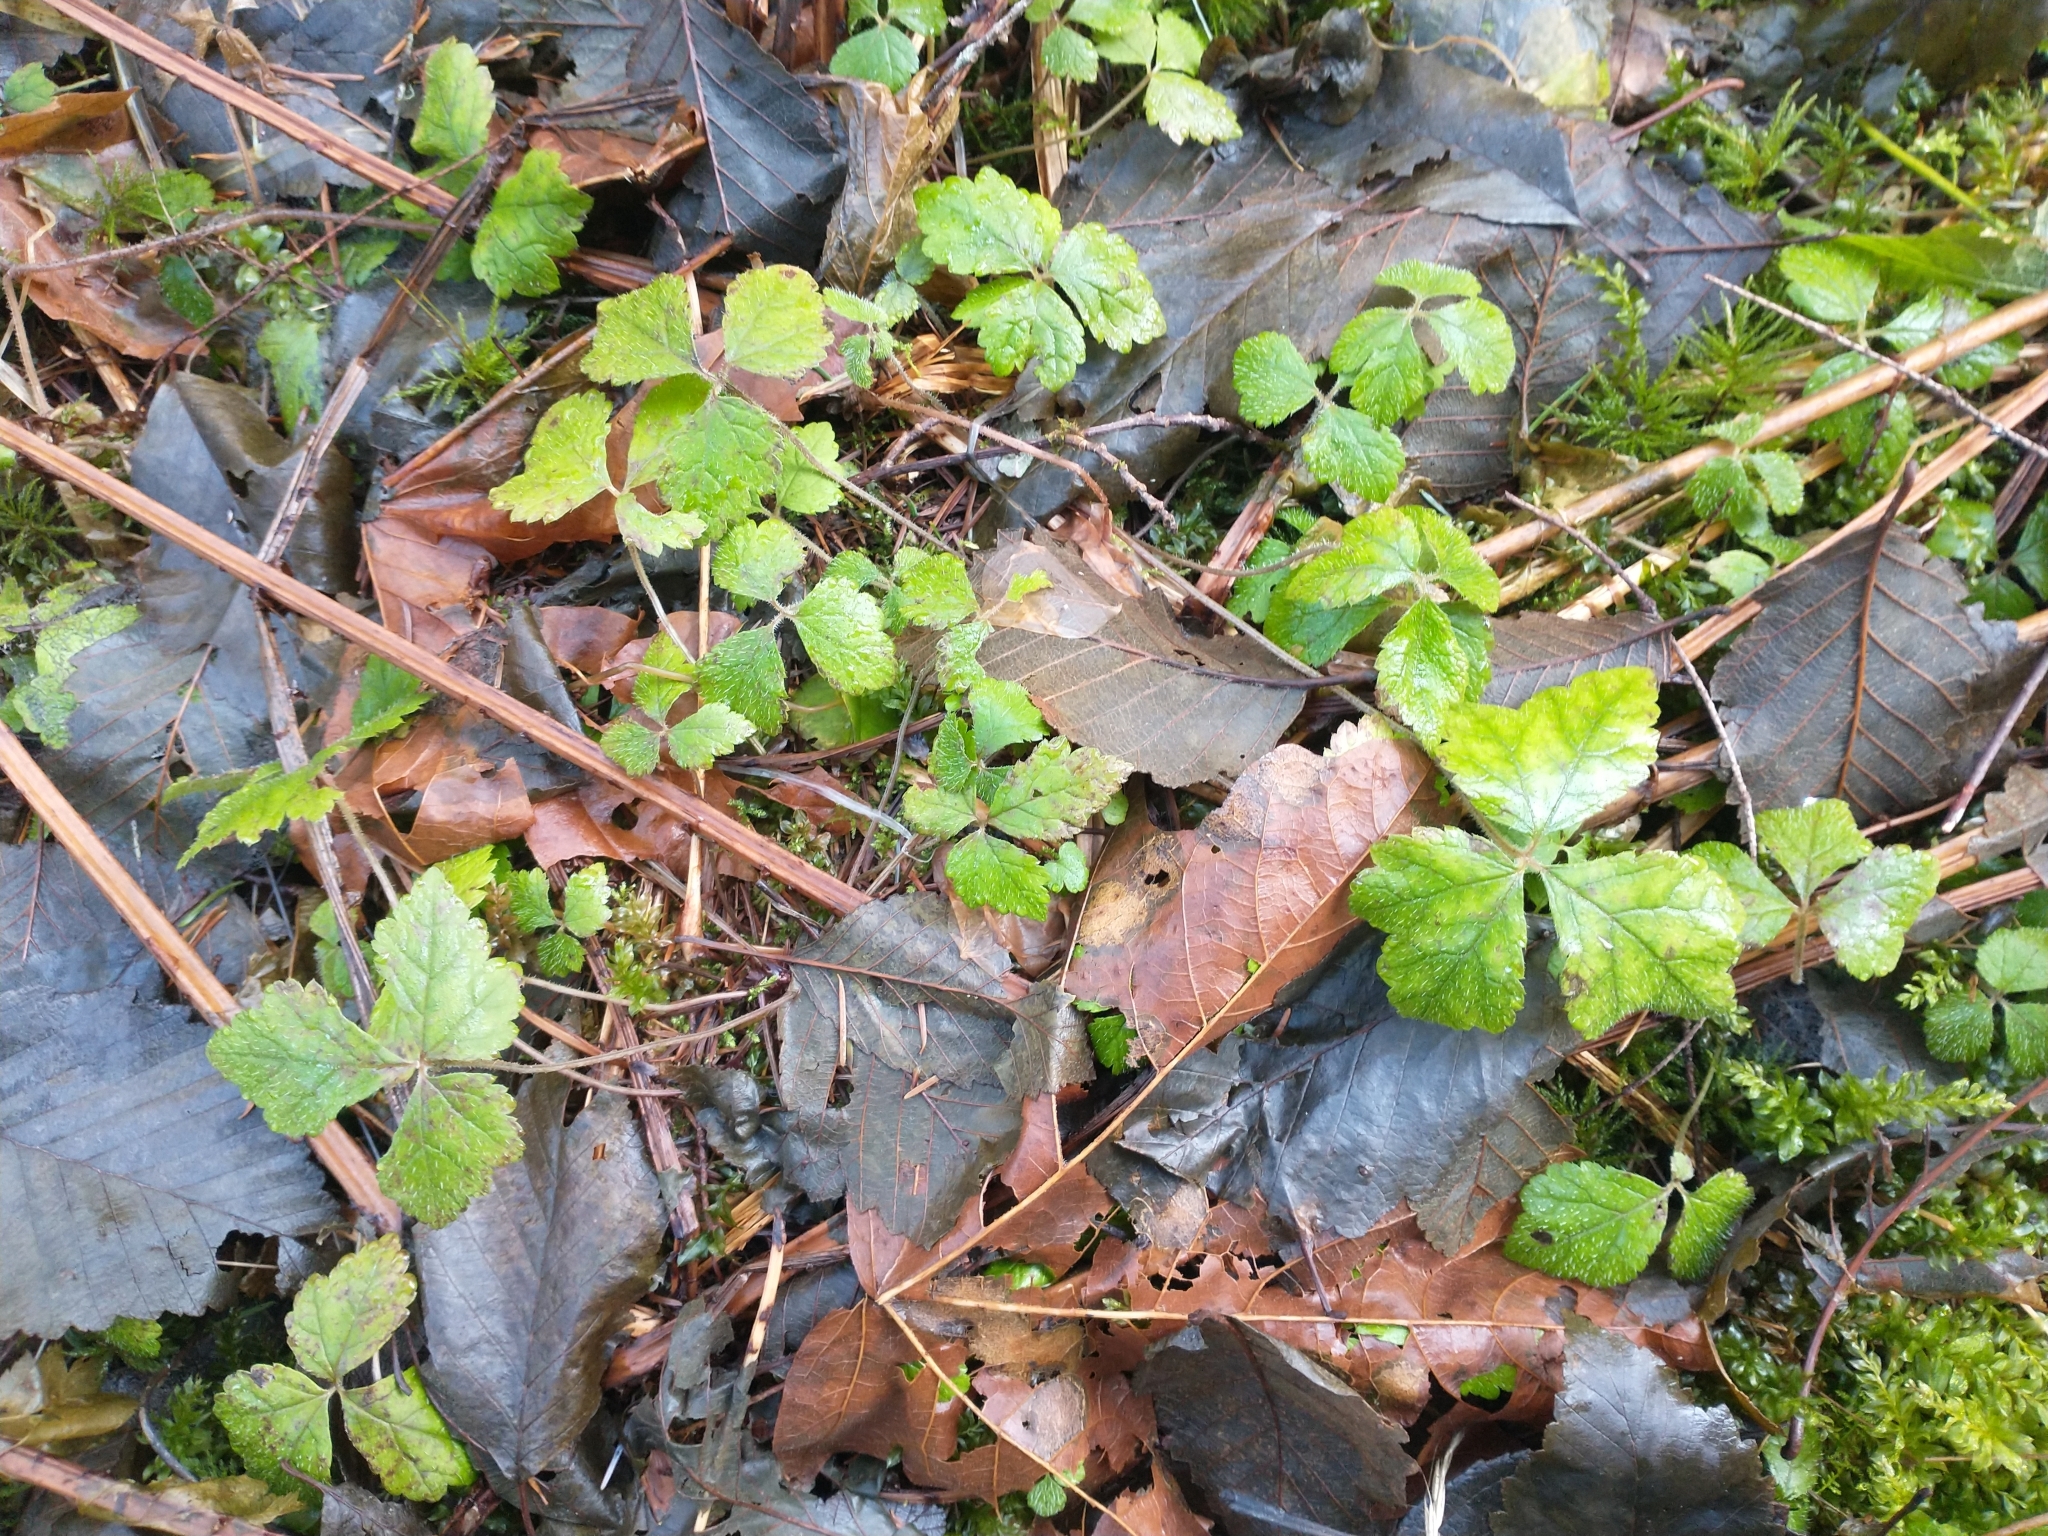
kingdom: Plantae
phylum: Tracheophyta
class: Magnoliopsida
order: Saxifragales
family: Saxifragaceae
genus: Tiarella
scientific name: Tiarella trifoliata
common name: Sugar-scoop
